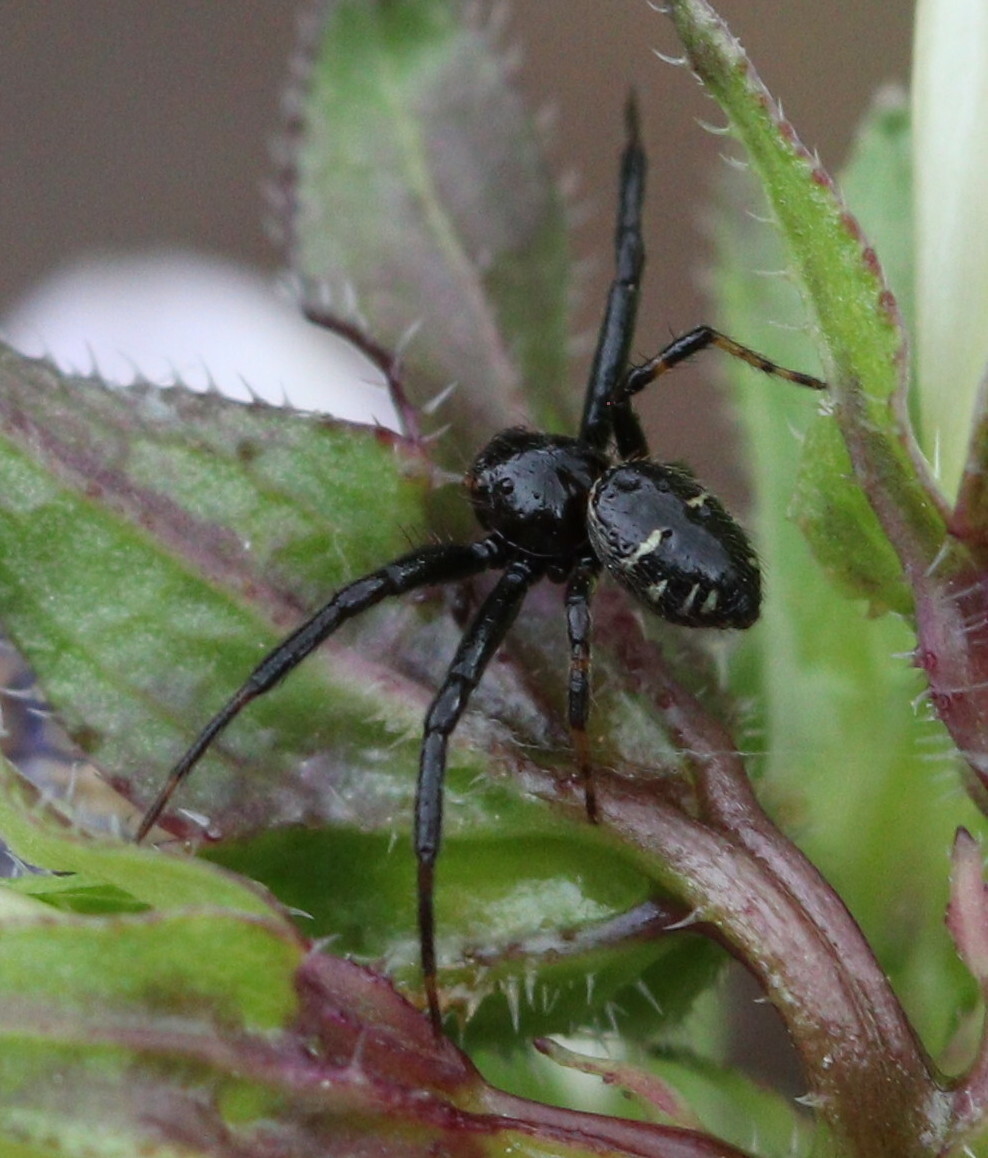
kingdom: Animalia
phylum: Arthropoda
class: Arachnida
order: Araneae
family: Thomisidae
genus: Synema
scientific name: Synema globosum
